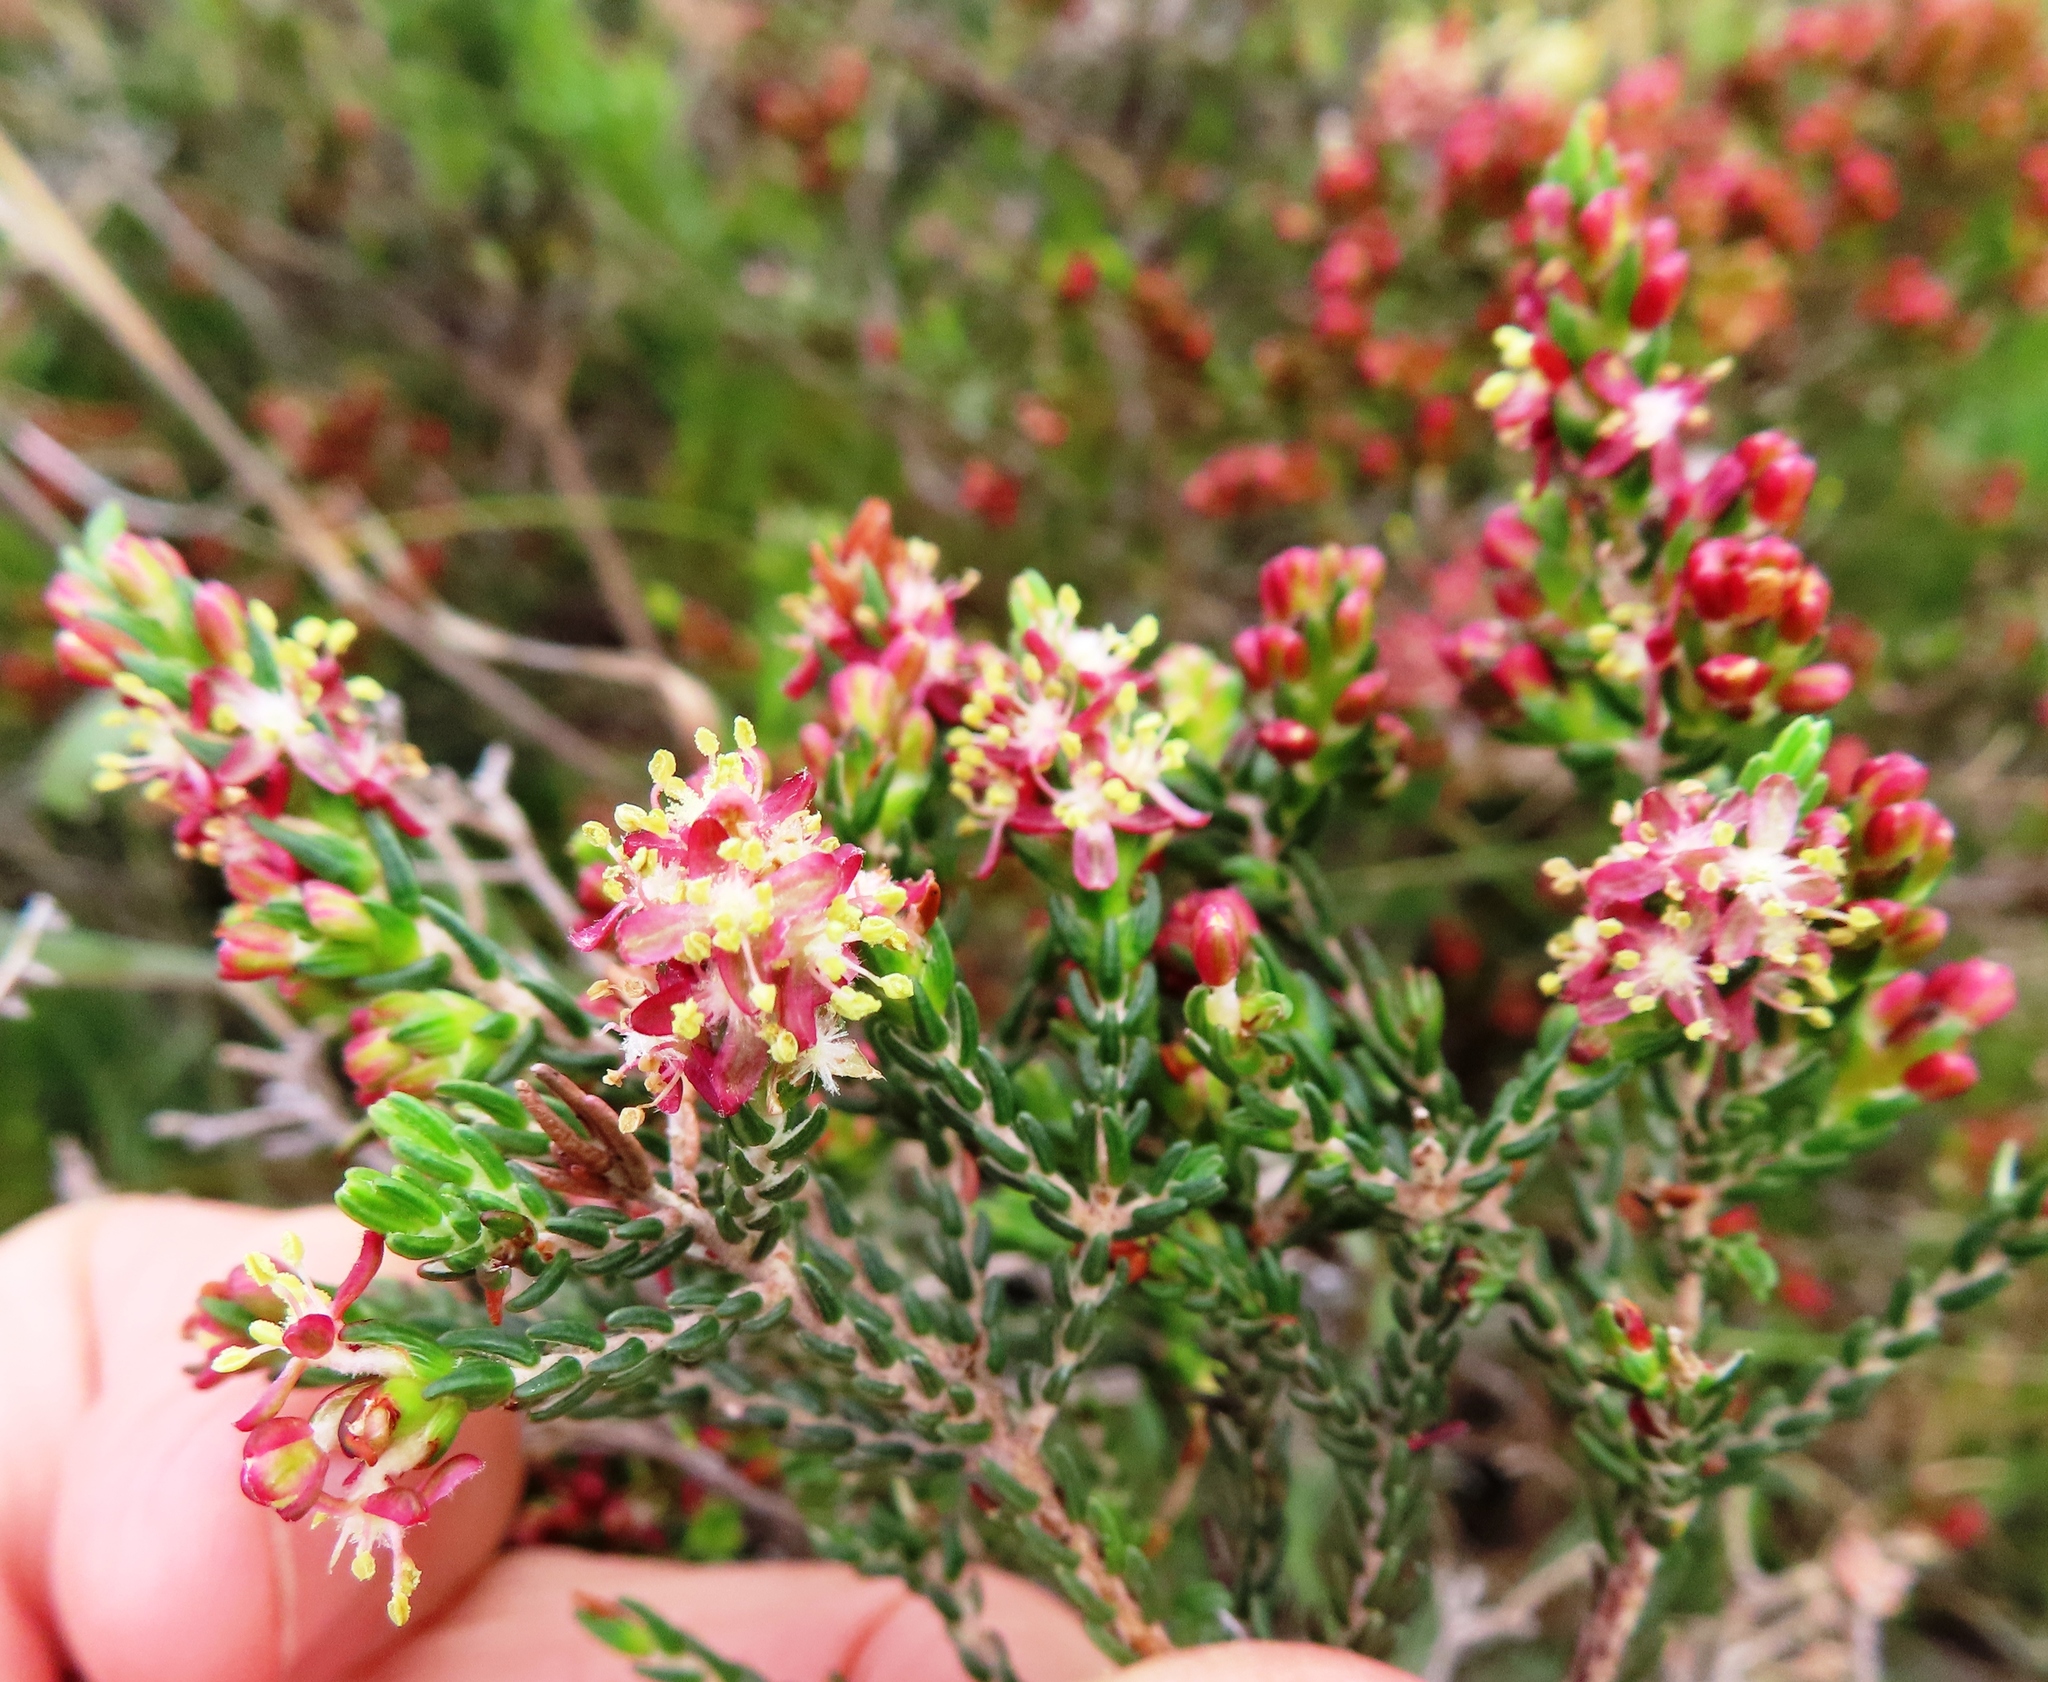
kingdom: Plantae
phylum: Tracheophyta
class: Magnoliopsida
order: Malvales
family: Thymelaeaceae
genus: Passerina
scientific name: Passerina rubra
